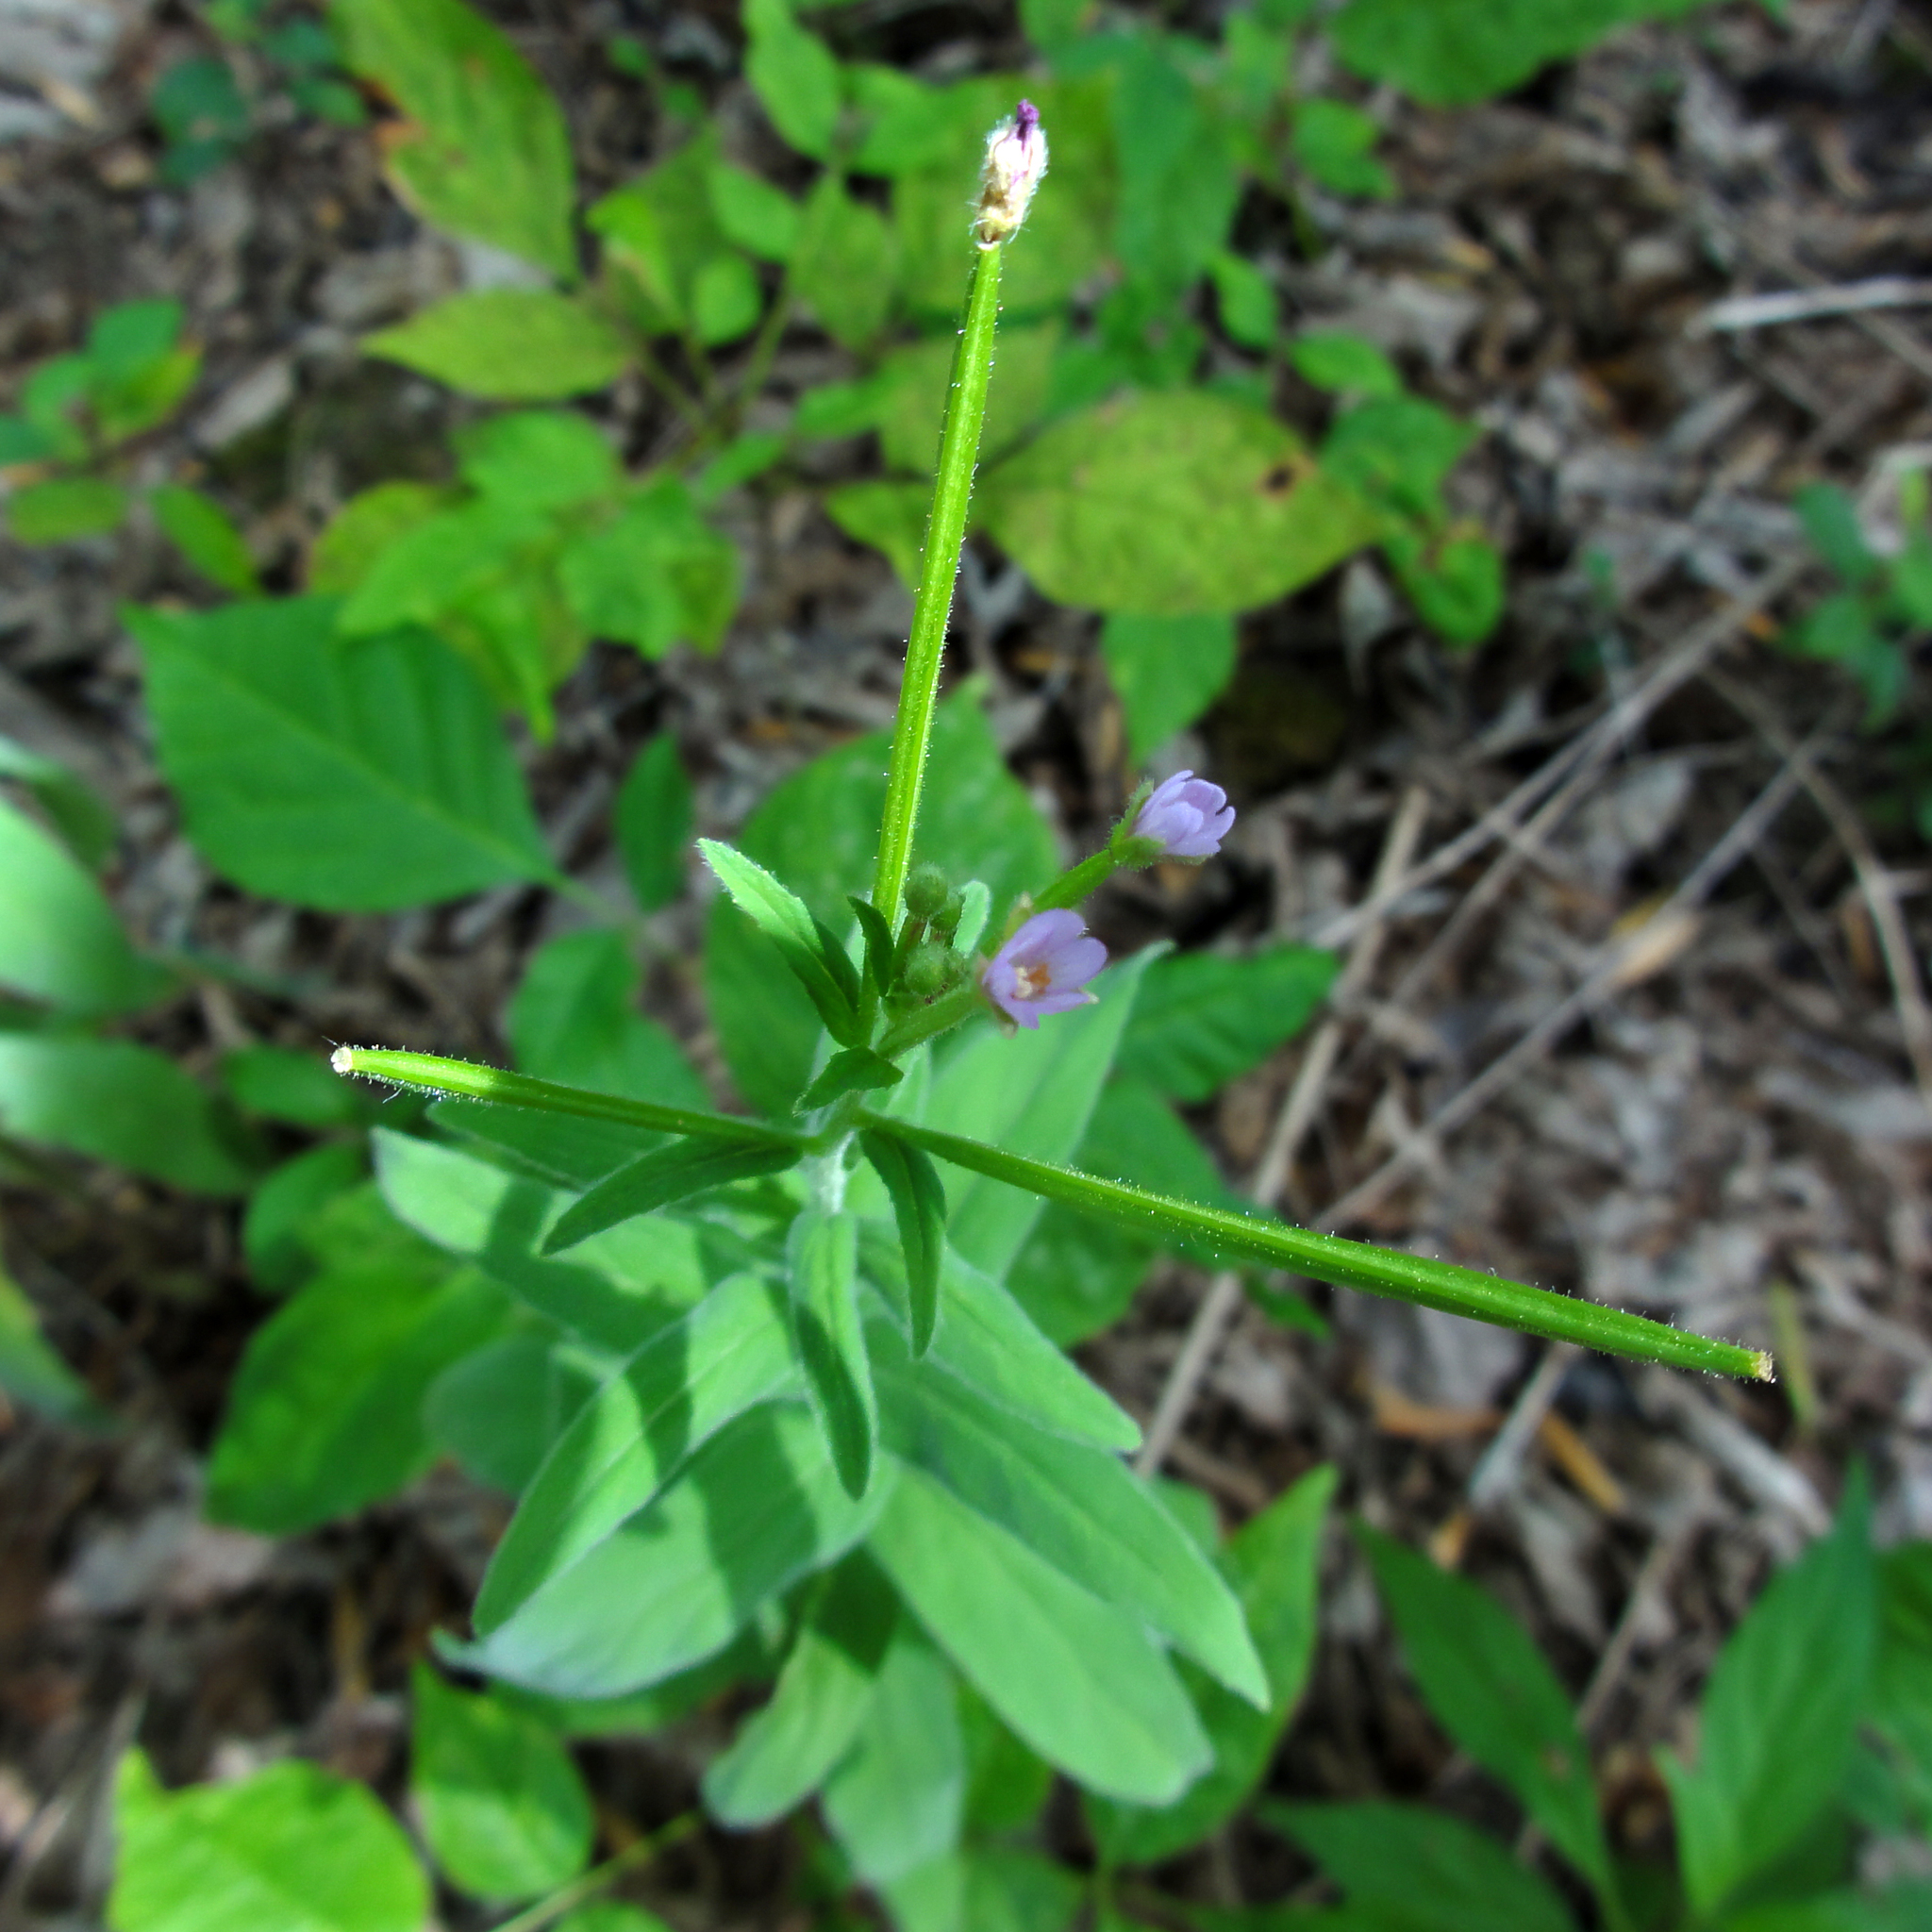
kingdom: Plantae
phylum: Tracheophyta
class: Magnoliopsida
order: Myrtales
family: Onagraceae
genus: Epilobium
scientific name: Epilobium ciliatum
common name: American willowherb
